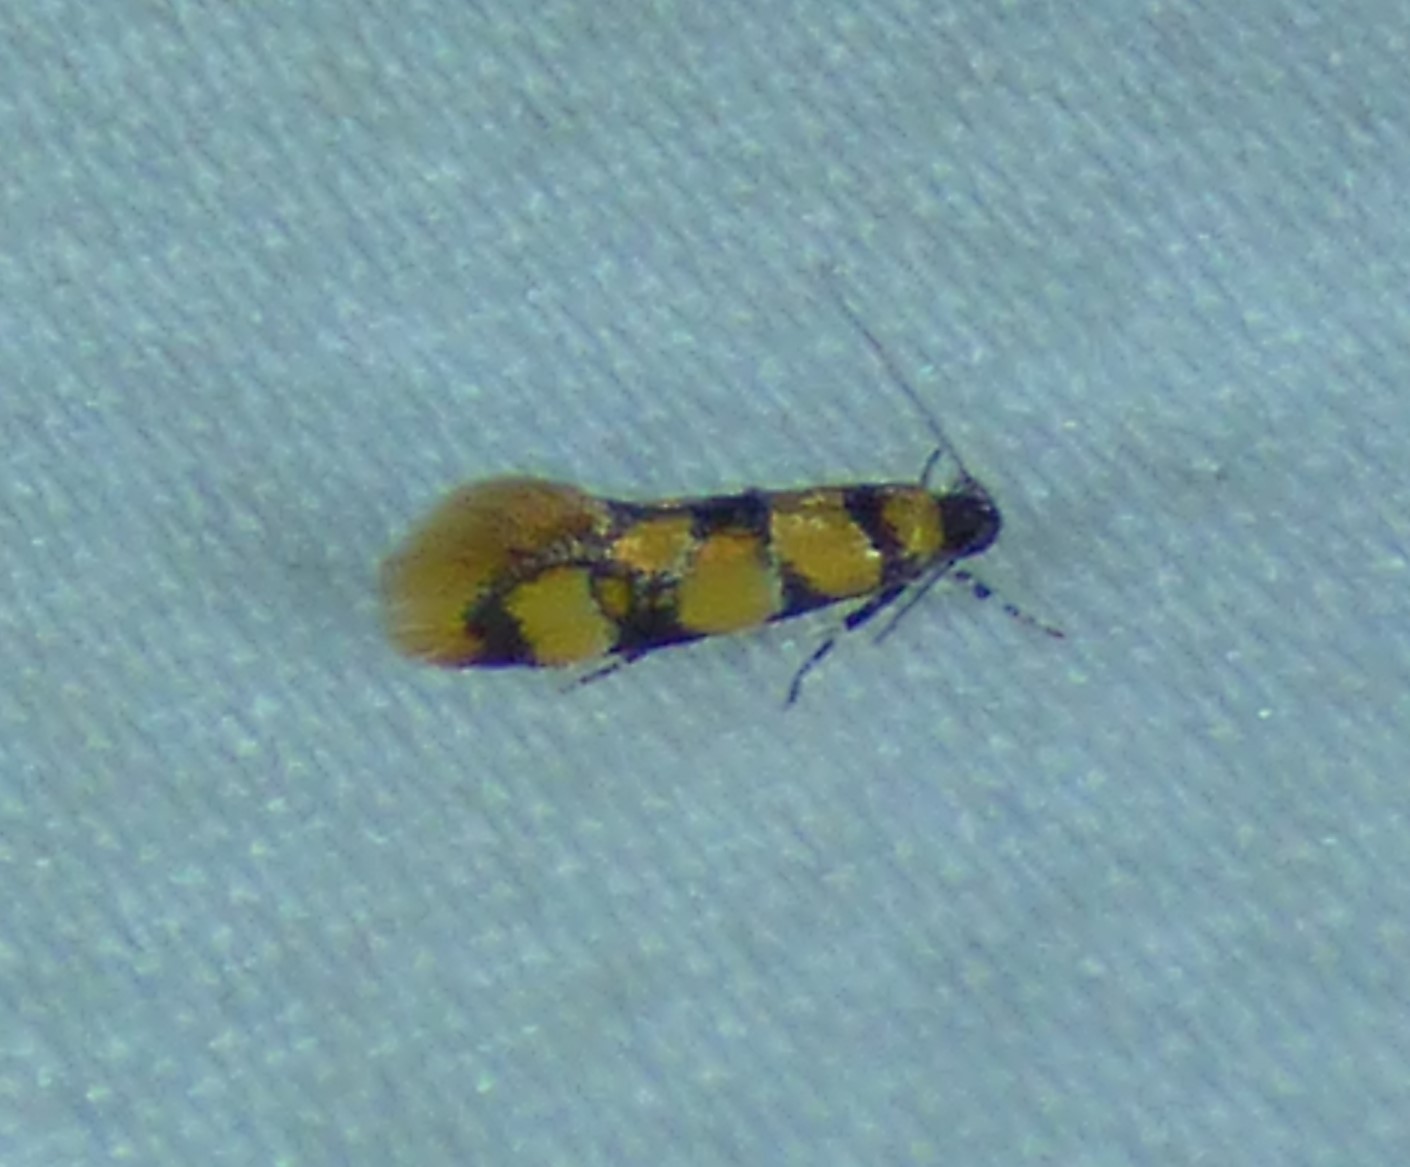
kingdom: Animalia
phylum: Arthropoda
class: Insecta
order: Lepidoptera
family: Oecophoridae
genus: Decantha
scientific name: Decantha borkhausenii
